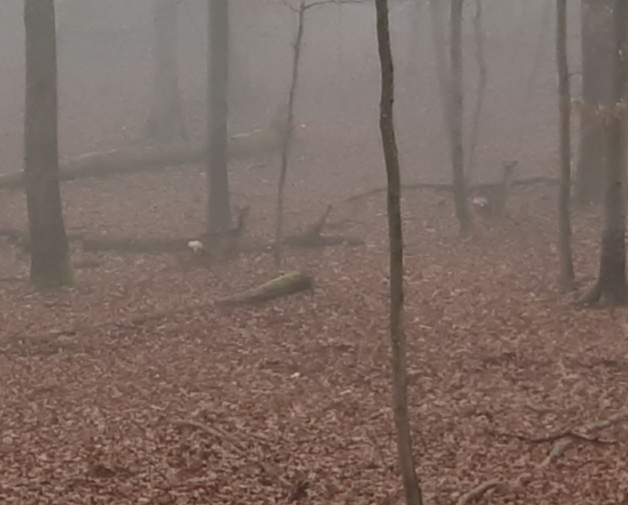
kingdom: Animalia
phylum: Chordata
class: Mammalia
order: Artiodactyla
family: Cervidae
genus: Capreolus
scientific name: Capreolus capreolus
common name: Western roe deer
